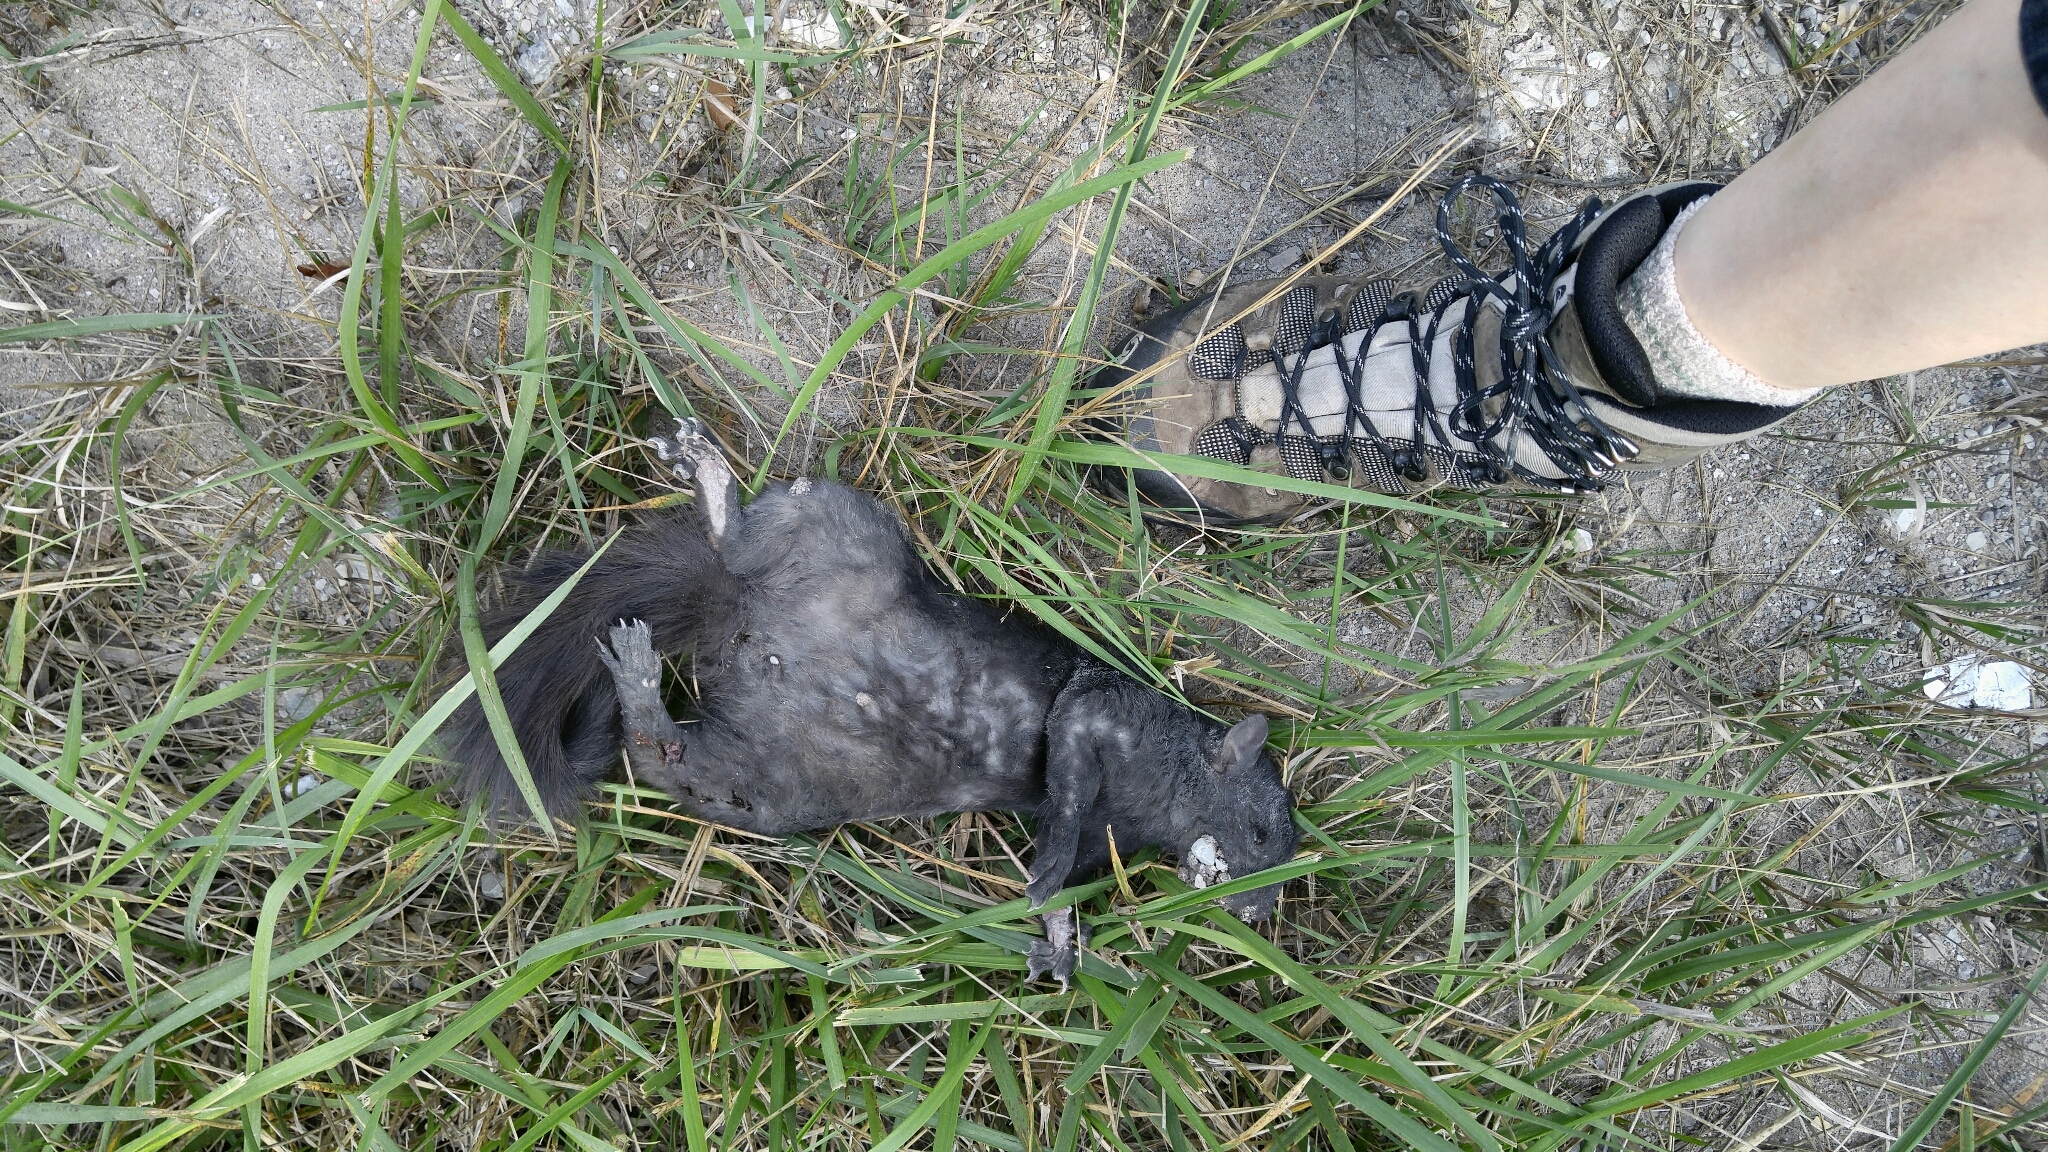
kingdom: Animalia
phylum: Chordata
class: Mammalia
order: Rodentia
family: Sciuridae
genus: Sciurus
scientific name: Sciurus carolinensis
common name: Eastern gray squirrel
